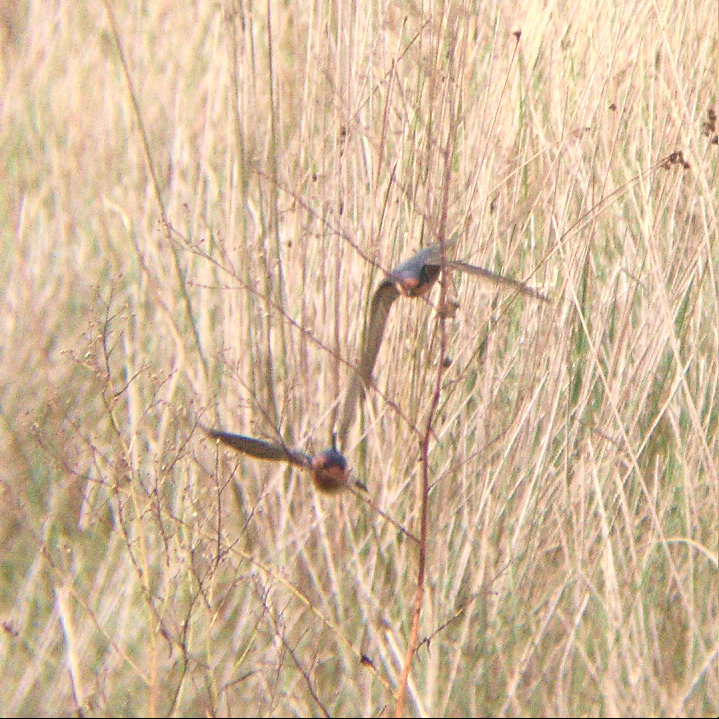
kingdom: Animalia
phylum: Chordata
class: Aves
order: Passeriformes
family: Hirundinidae
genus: Hirundo
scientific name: Hirundo neoxena
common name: Welcome swallow
